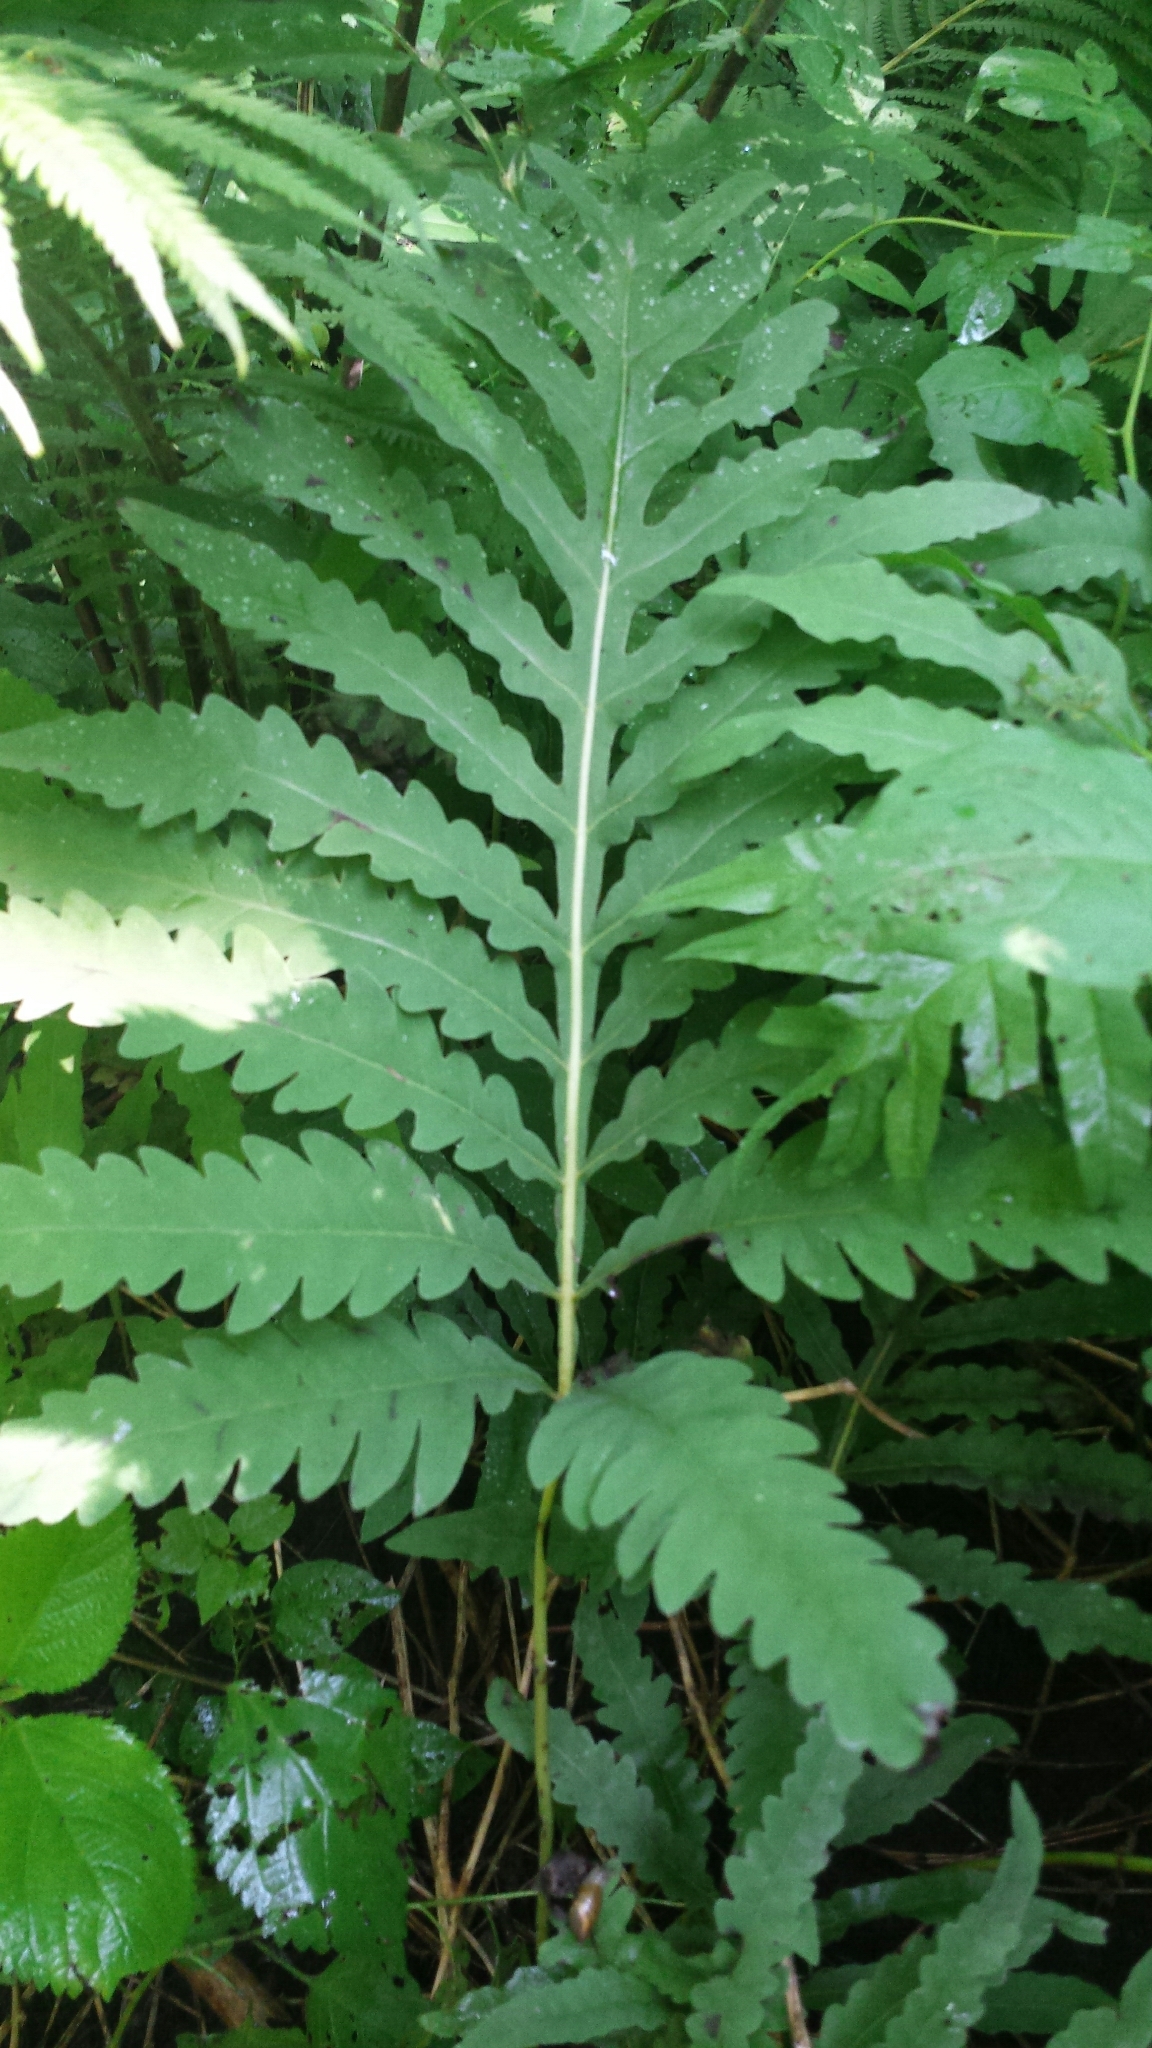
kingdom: Plantae
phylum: Tracheophyta
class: Polypodiopsida
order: Polypodiales
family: Onocleaceae
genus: Onoclea
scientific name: Onoclea sensibilis
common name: Sensitive fern
